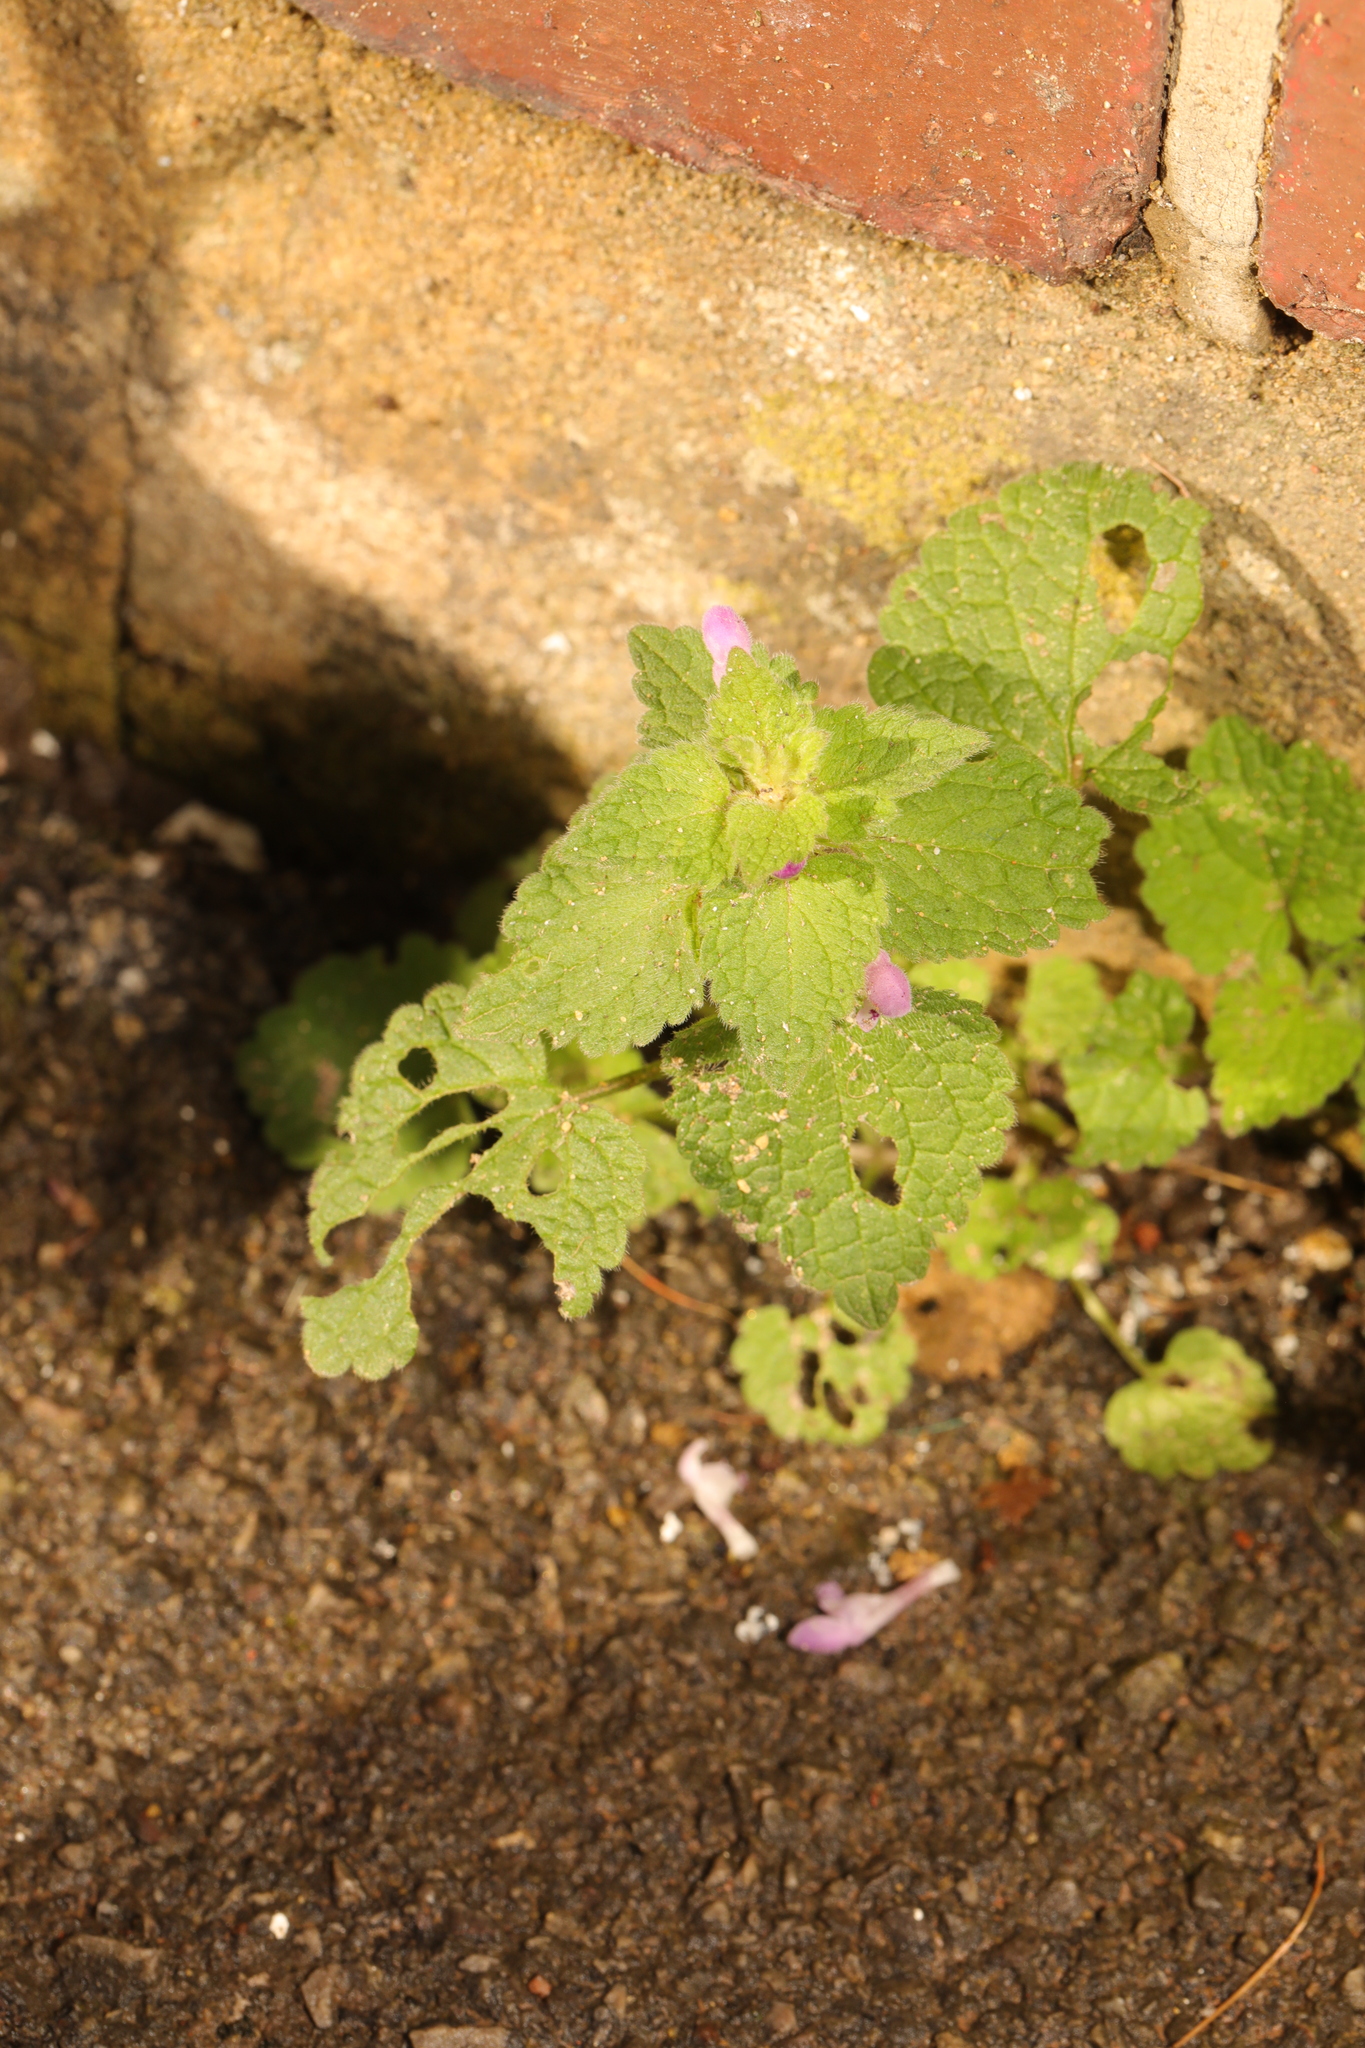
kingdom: Plantae
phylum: Tracheophyta
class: Magnoliopsida
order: Lamiales
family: Lamiaceae
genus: Lamium
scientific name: Lamium purpureum
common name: Red dead-nettle
